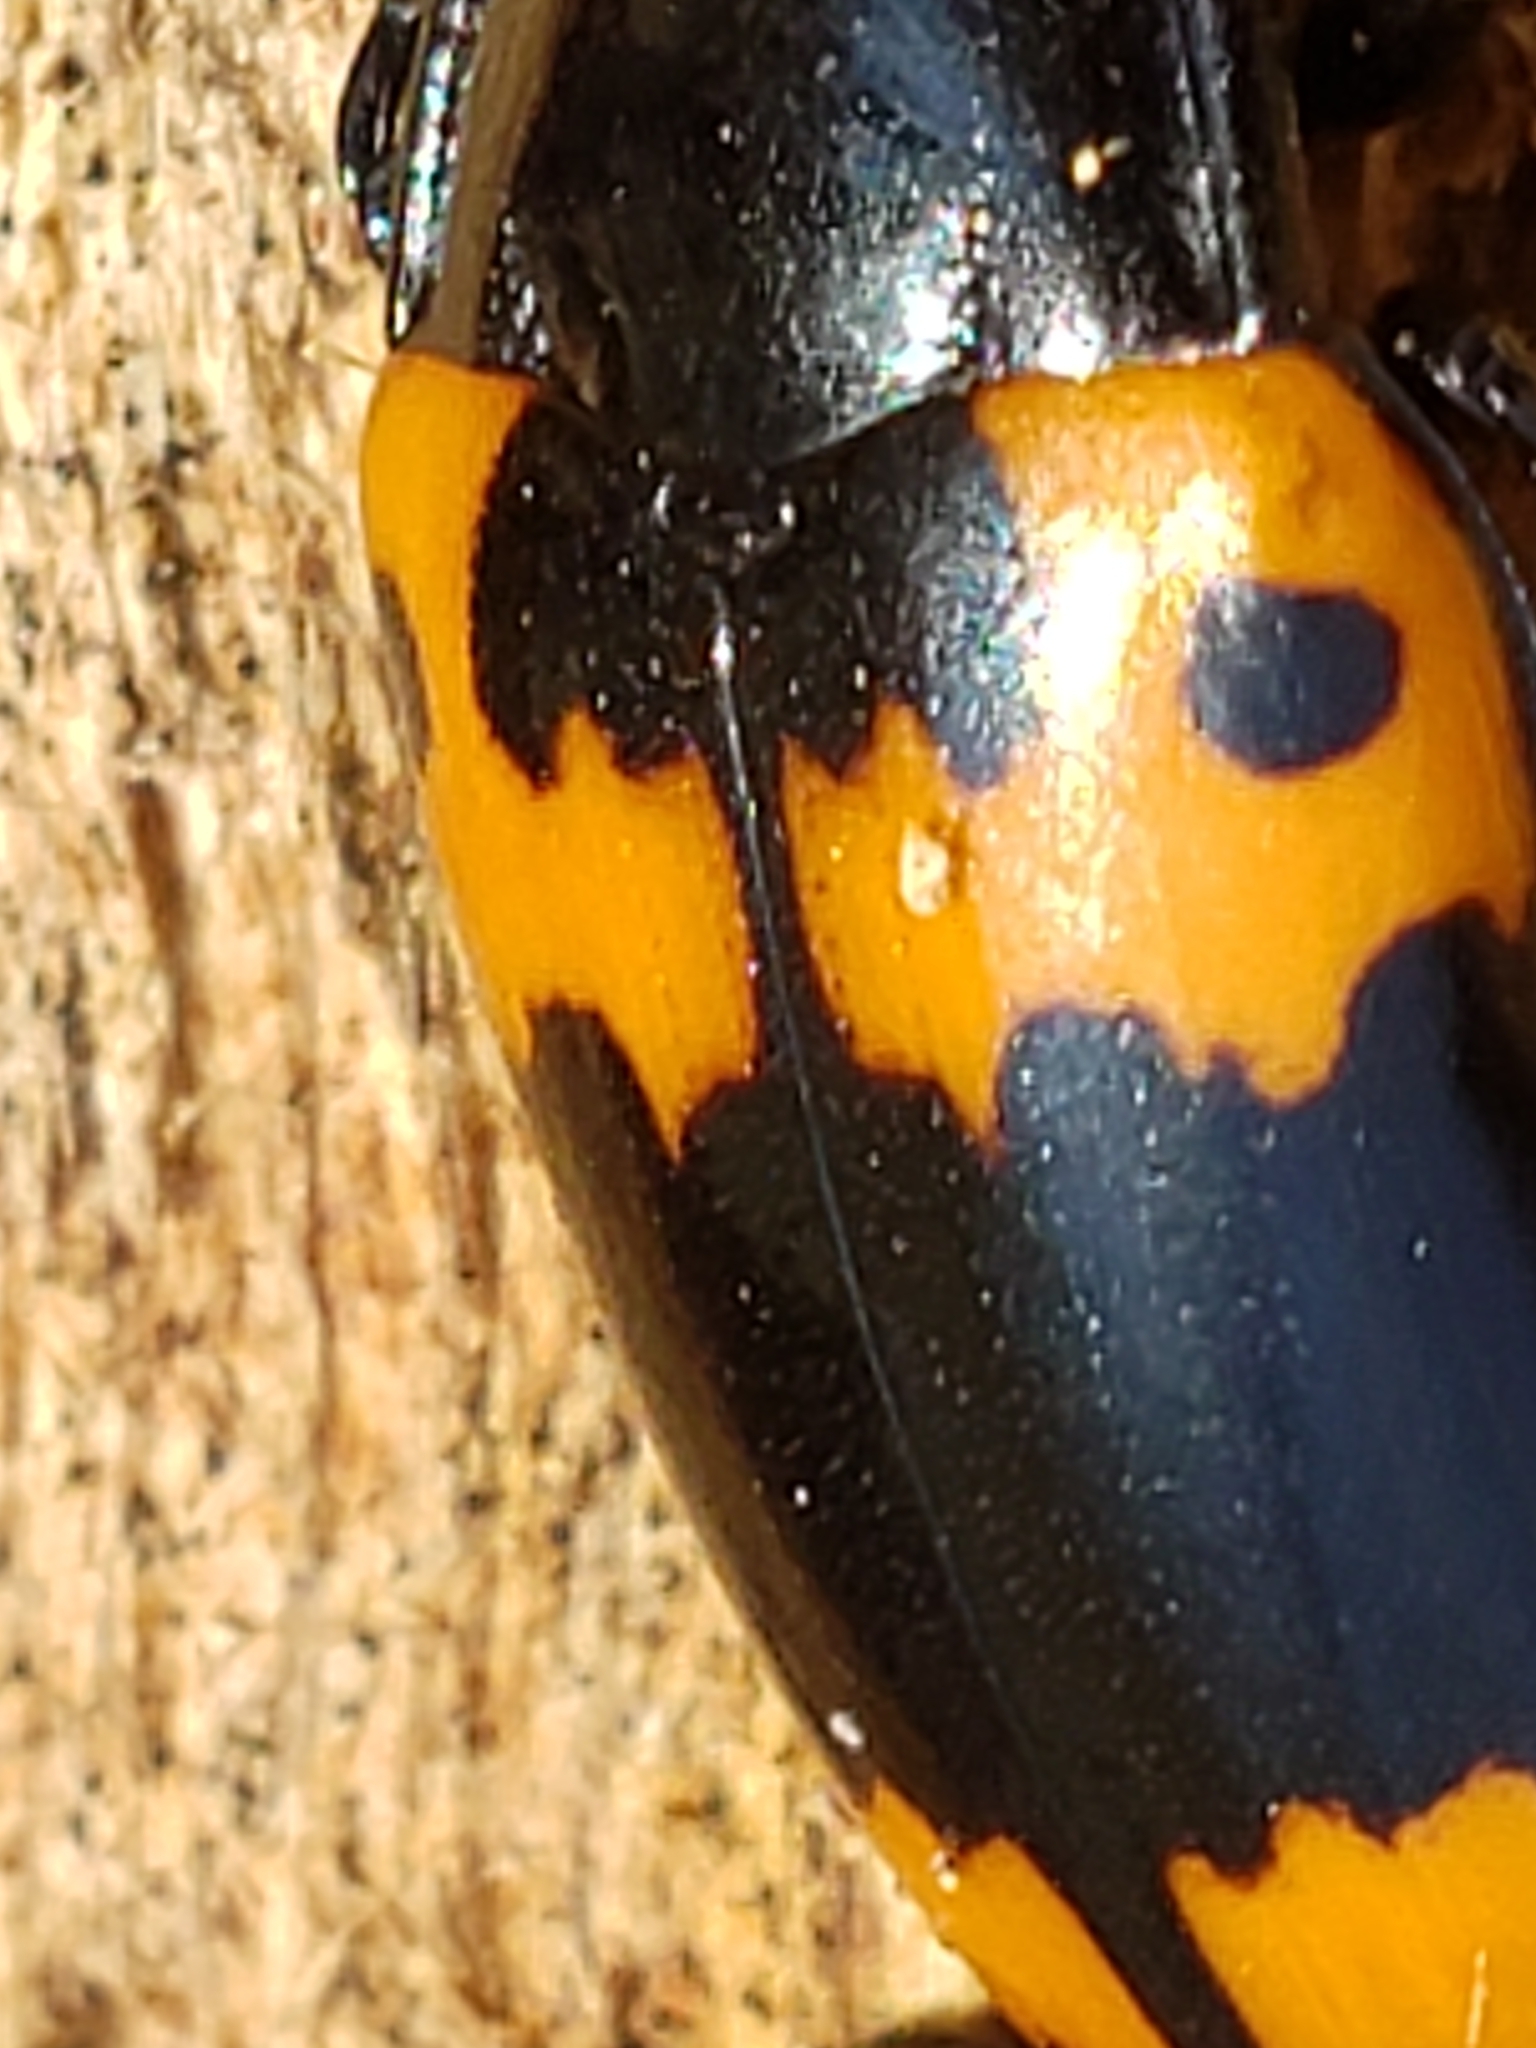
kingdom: Animalia
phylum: Arthropoda
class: Insecta
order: Coleoptera
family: Erotylidae
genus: Megalodacne
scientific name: Megalodacne fasciata
